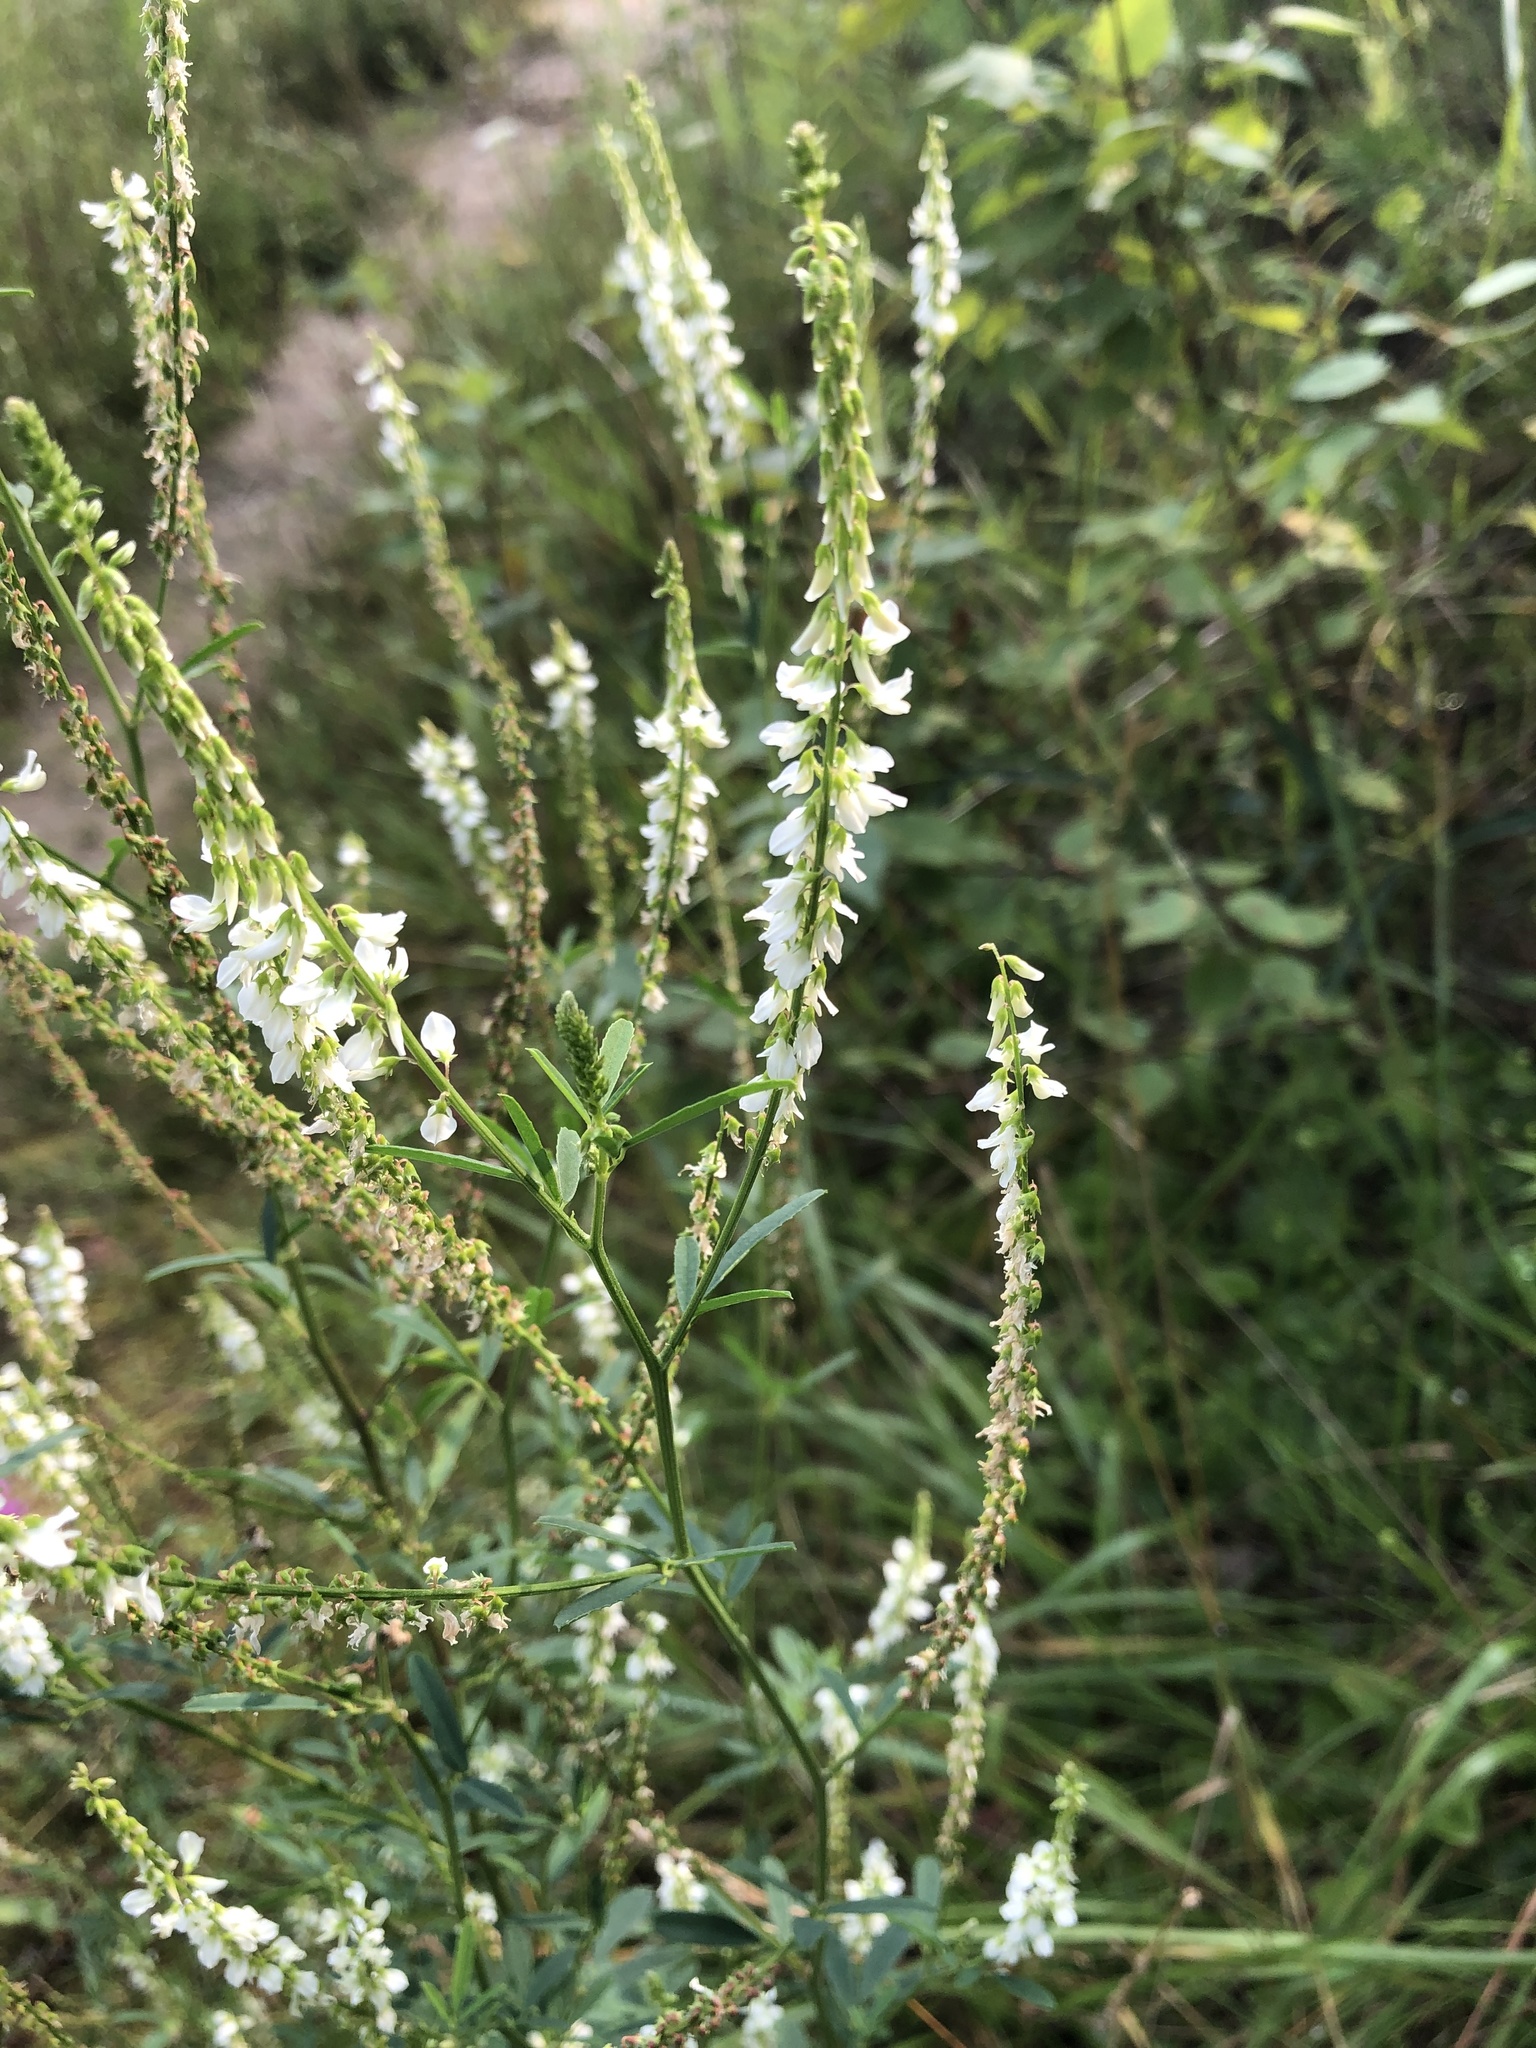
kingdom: Plantae
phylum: Tracheophyta
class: Magnoliopsida
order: Fabales
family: Fabaceae
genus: Melilotus
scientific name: Melilotus albus
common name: White melilot
